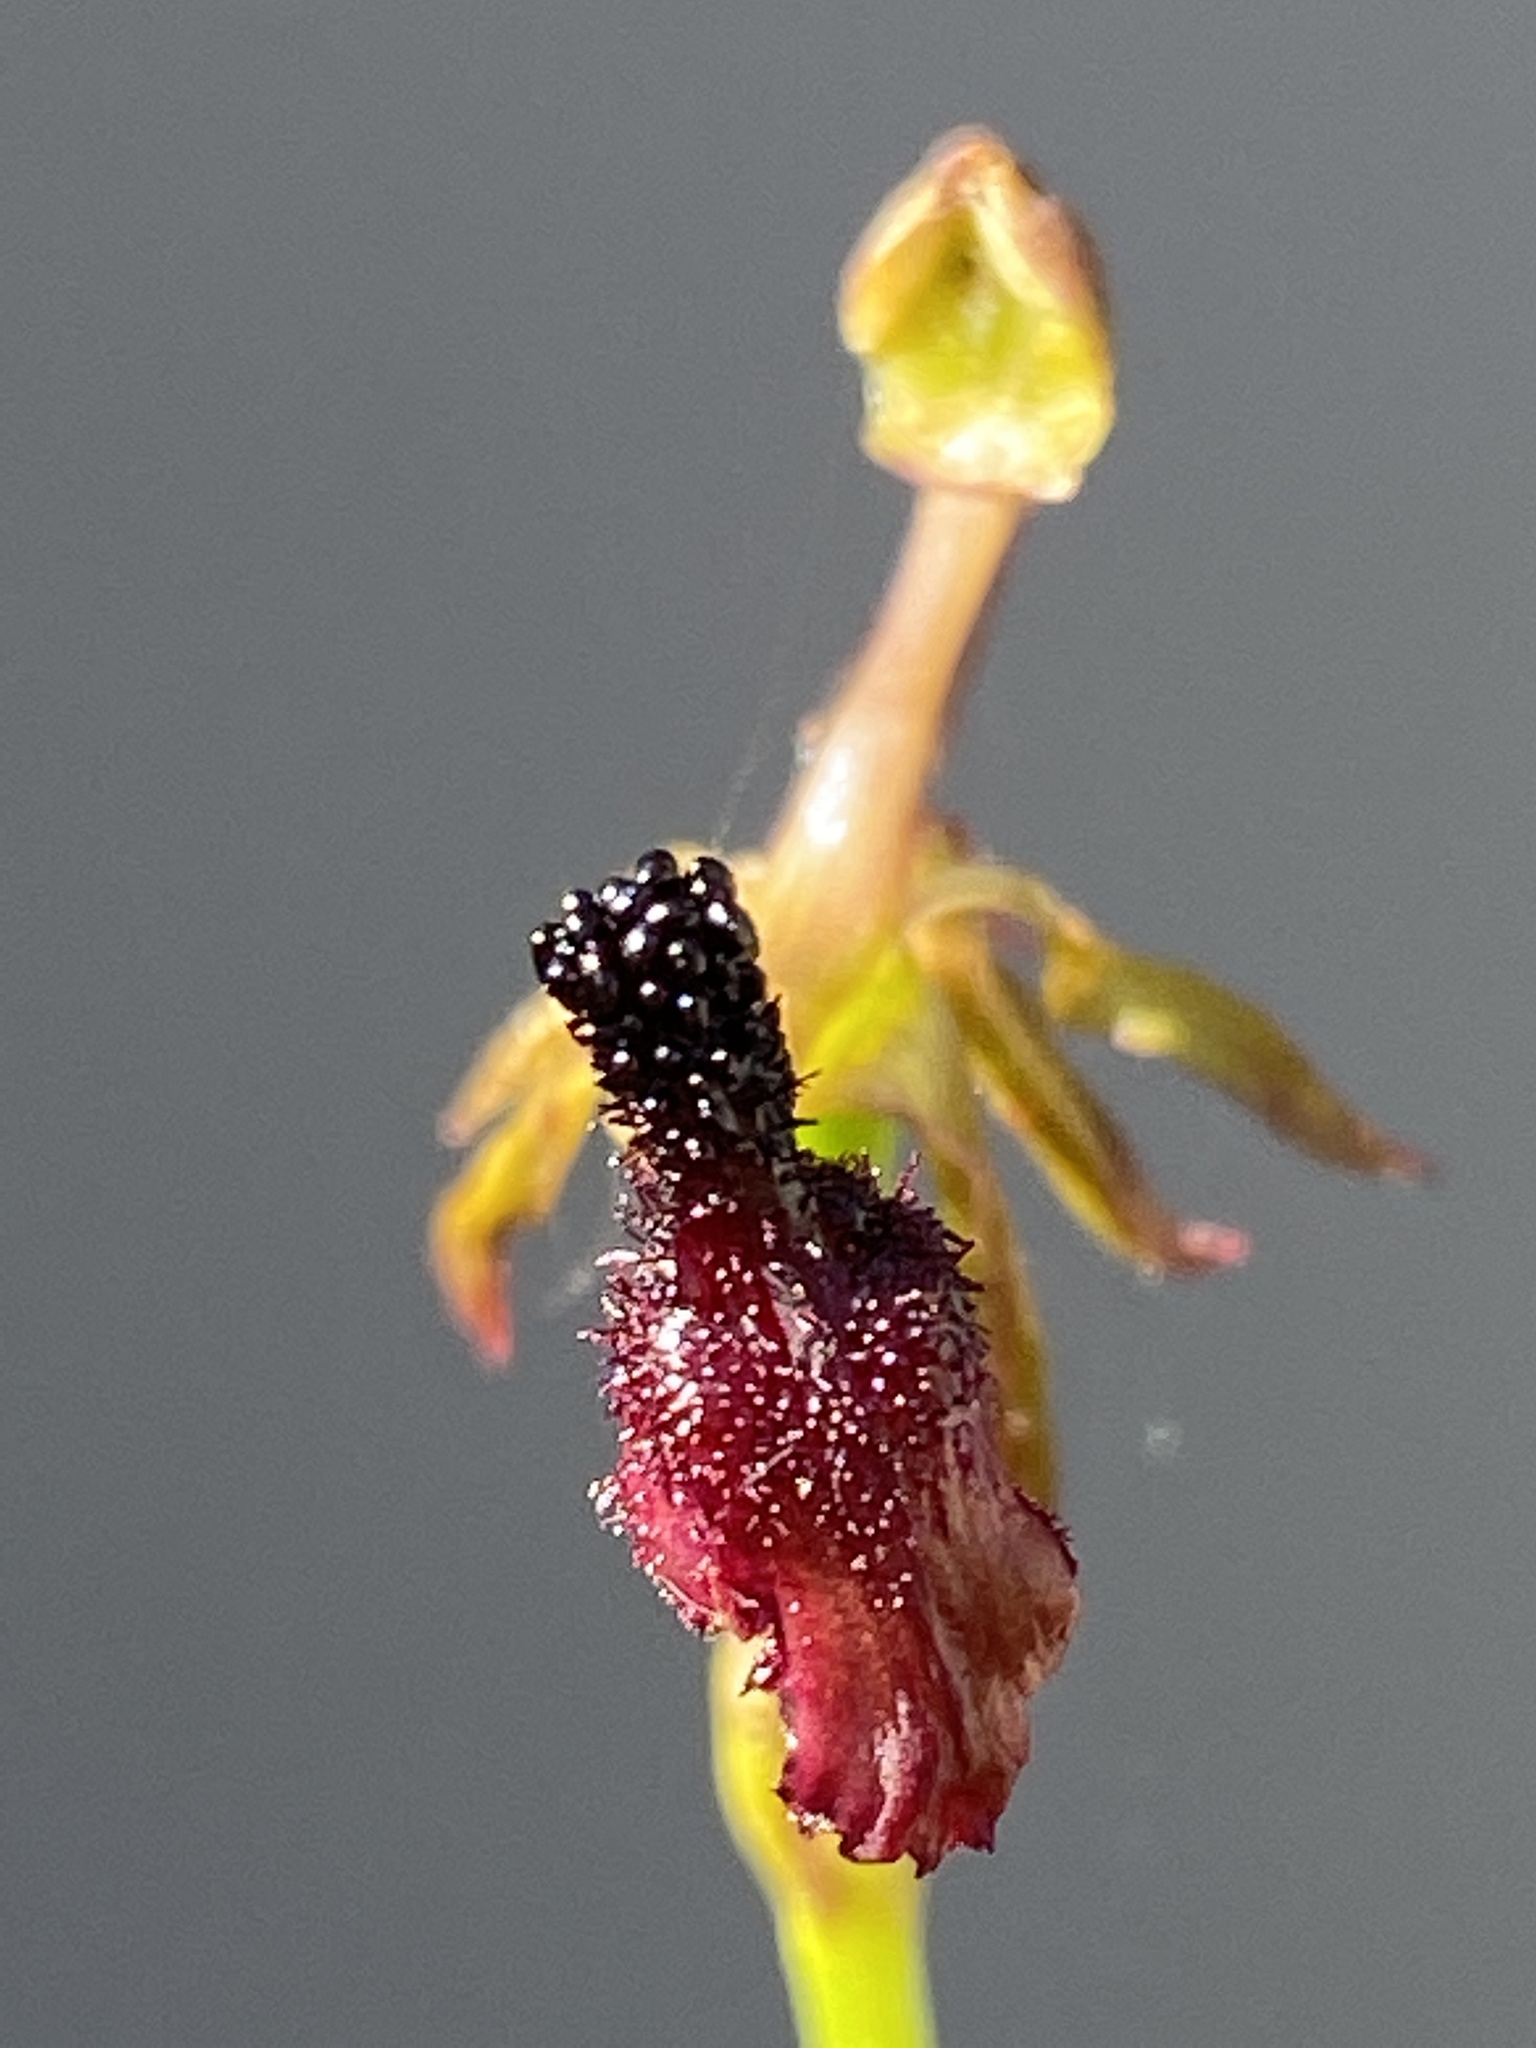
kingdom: Plantae
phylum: Tracheophyta
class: Liliopsida
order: Asparagales
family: Orchidaceae
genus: Drakaea
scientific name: Drakaea glyptodon
